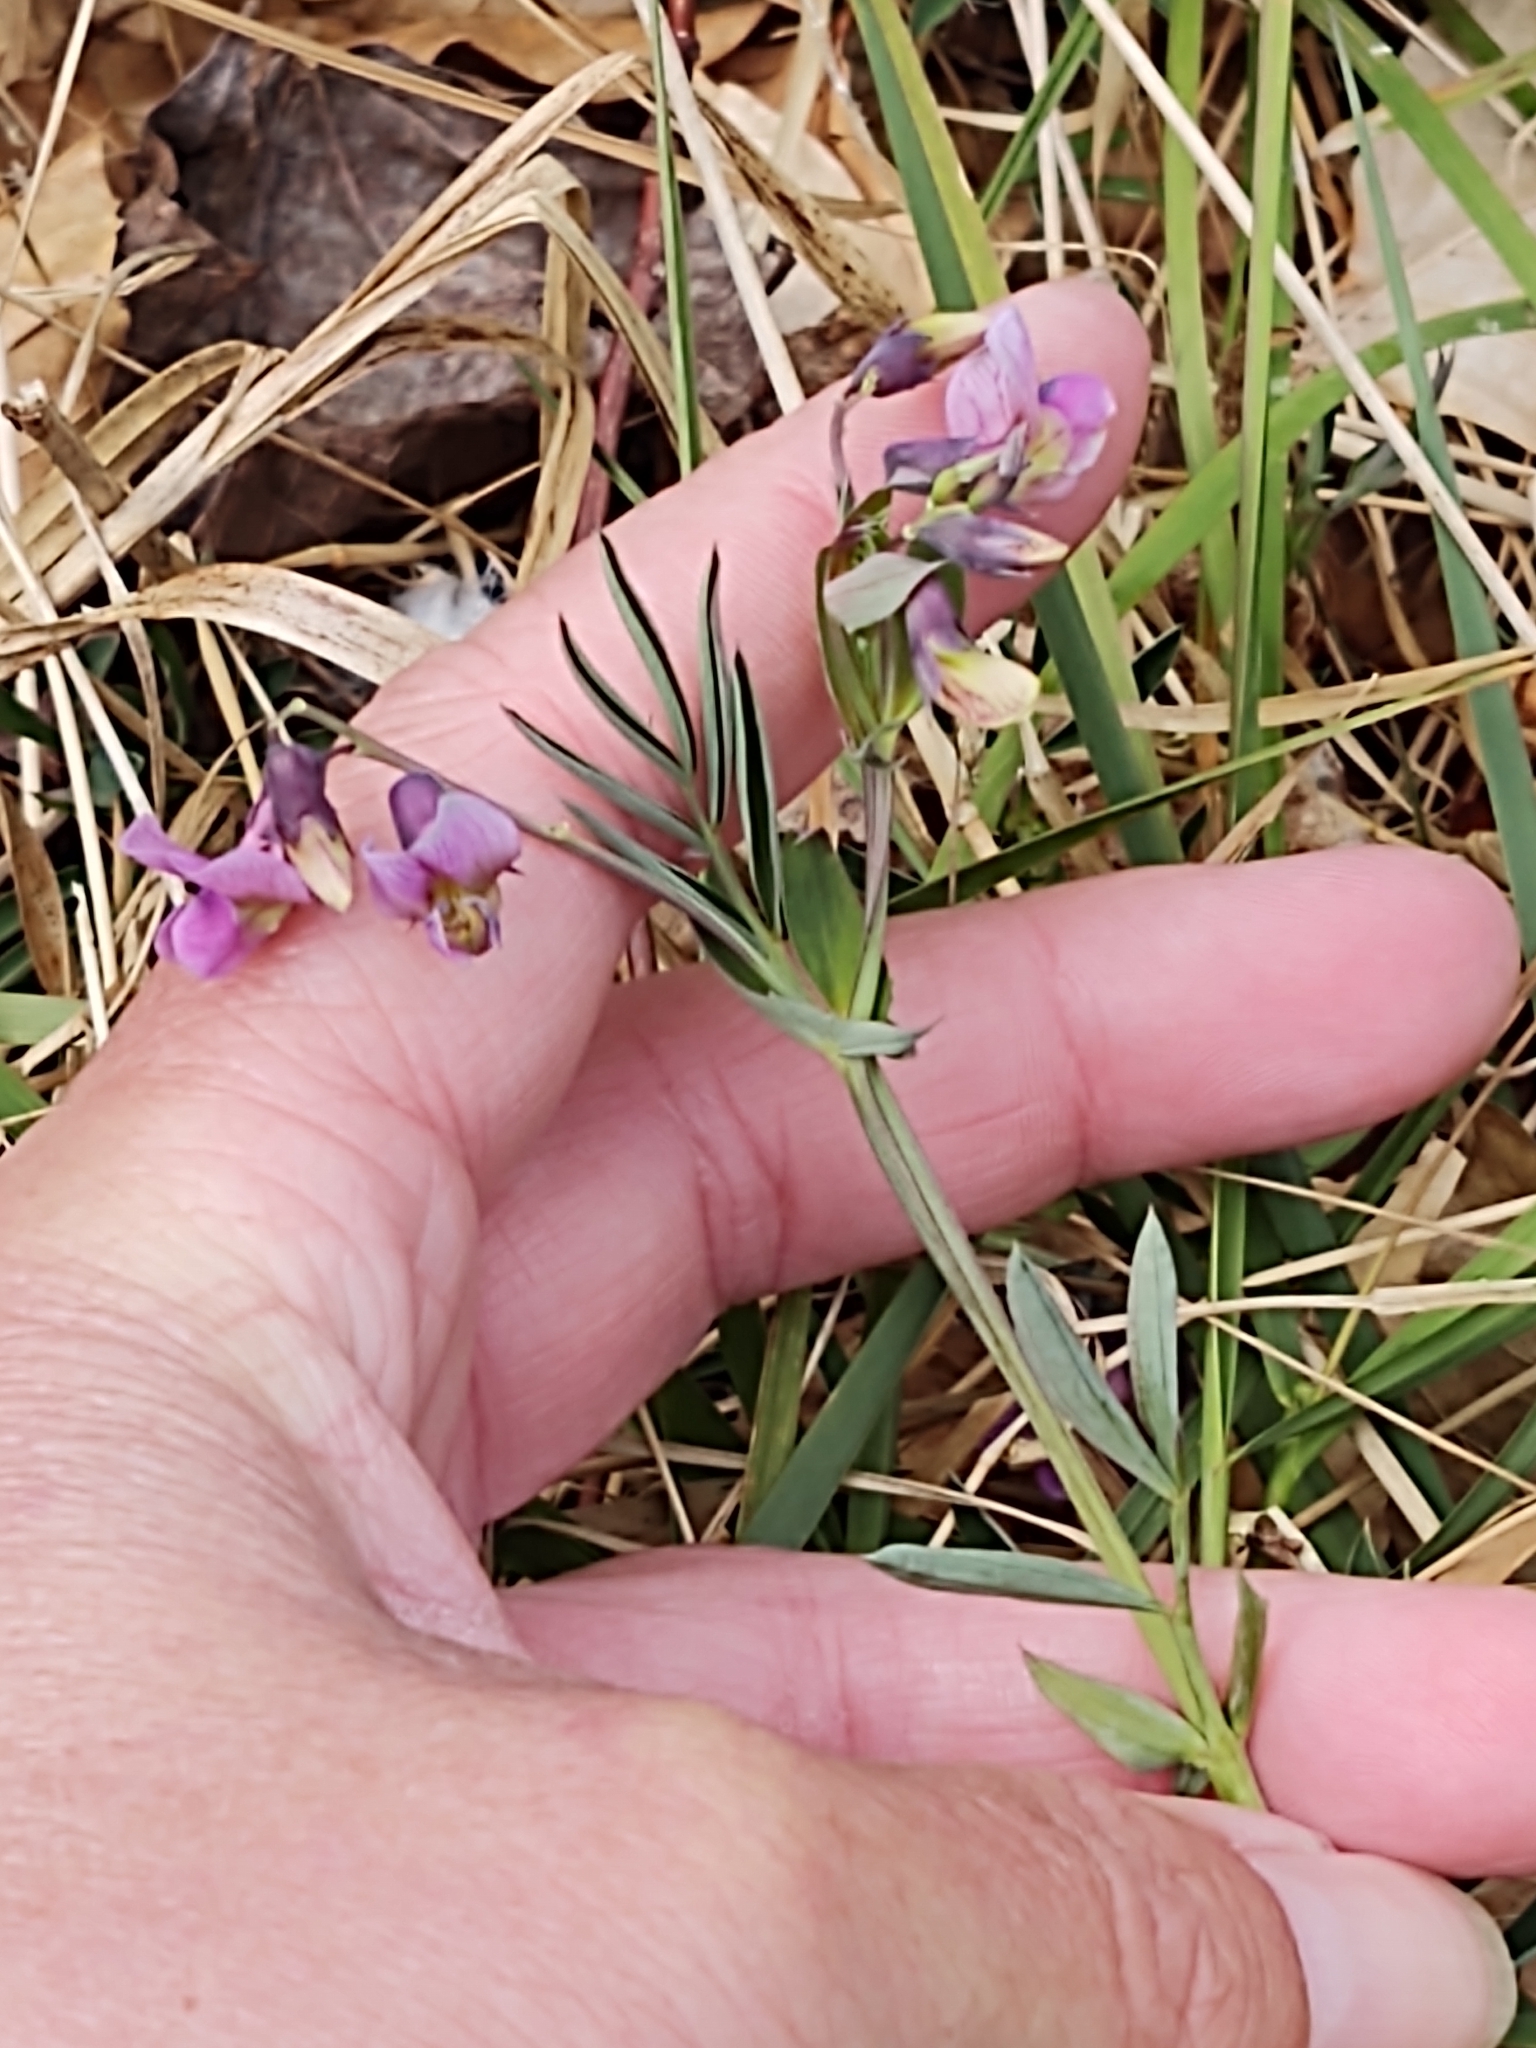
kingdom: Plantae
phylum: Tracheophyta
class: Magnoliopsida
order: Fabales
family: Fabaceae
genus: Lathyrus
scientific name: Lathyrus linifolius
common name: Bitter-vetch
